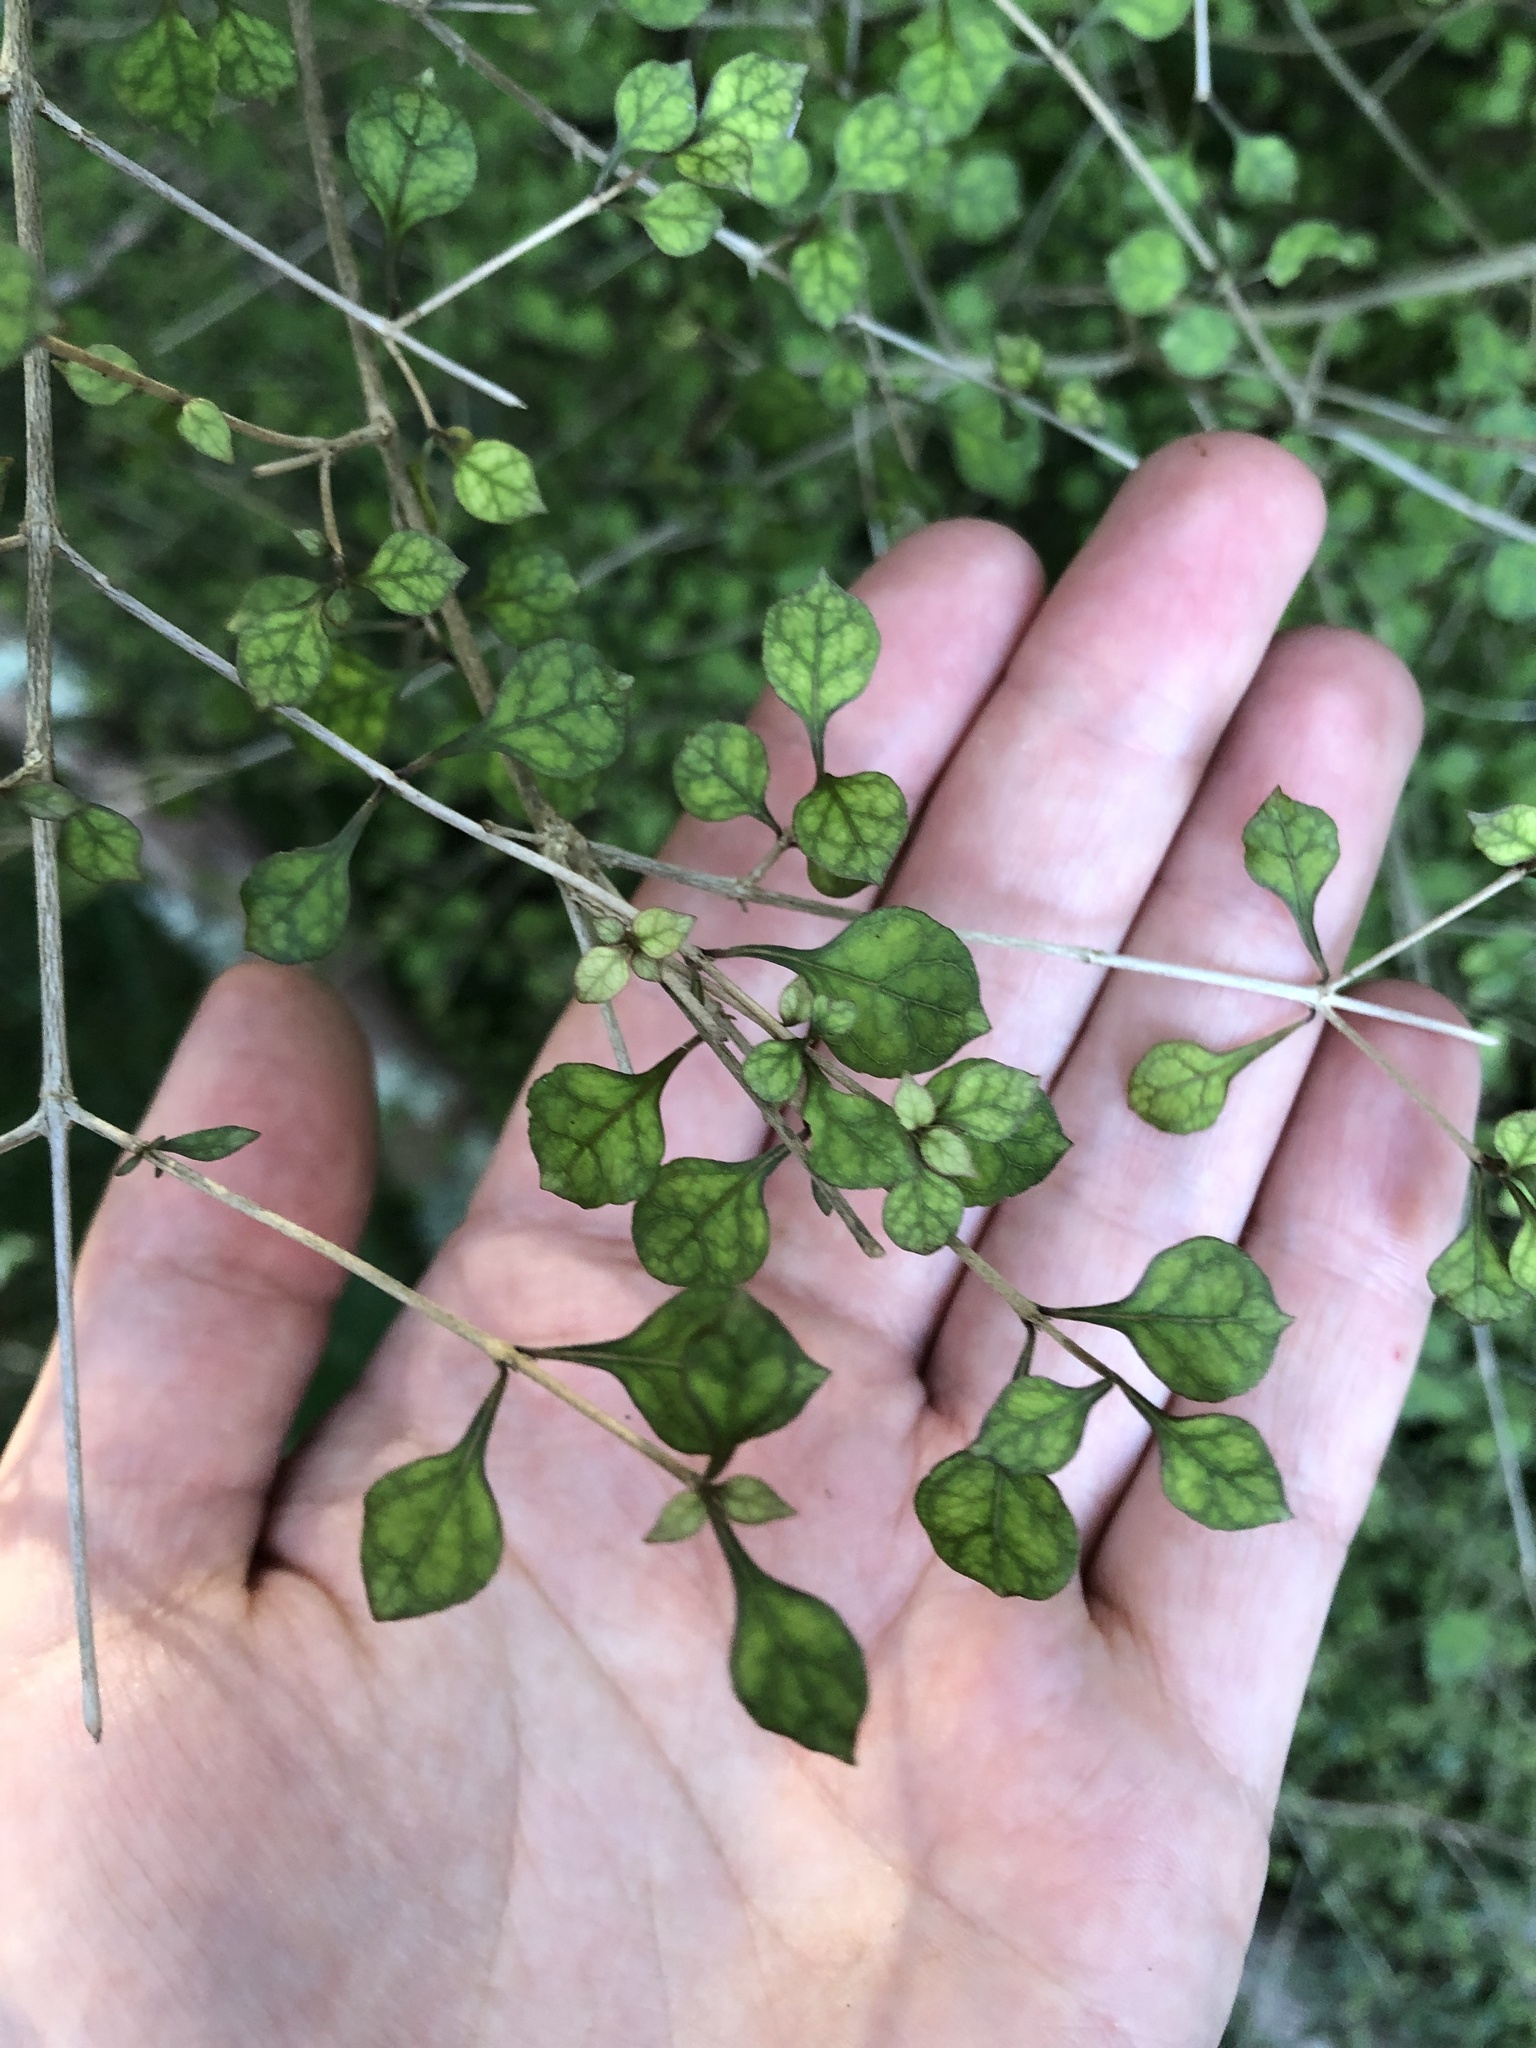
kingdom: Plantae
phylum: Tracheophyta
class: Magnoliopsida
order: Gentianales
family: Rubiaceae
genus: Coprosma
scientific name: Coprosma areolata
